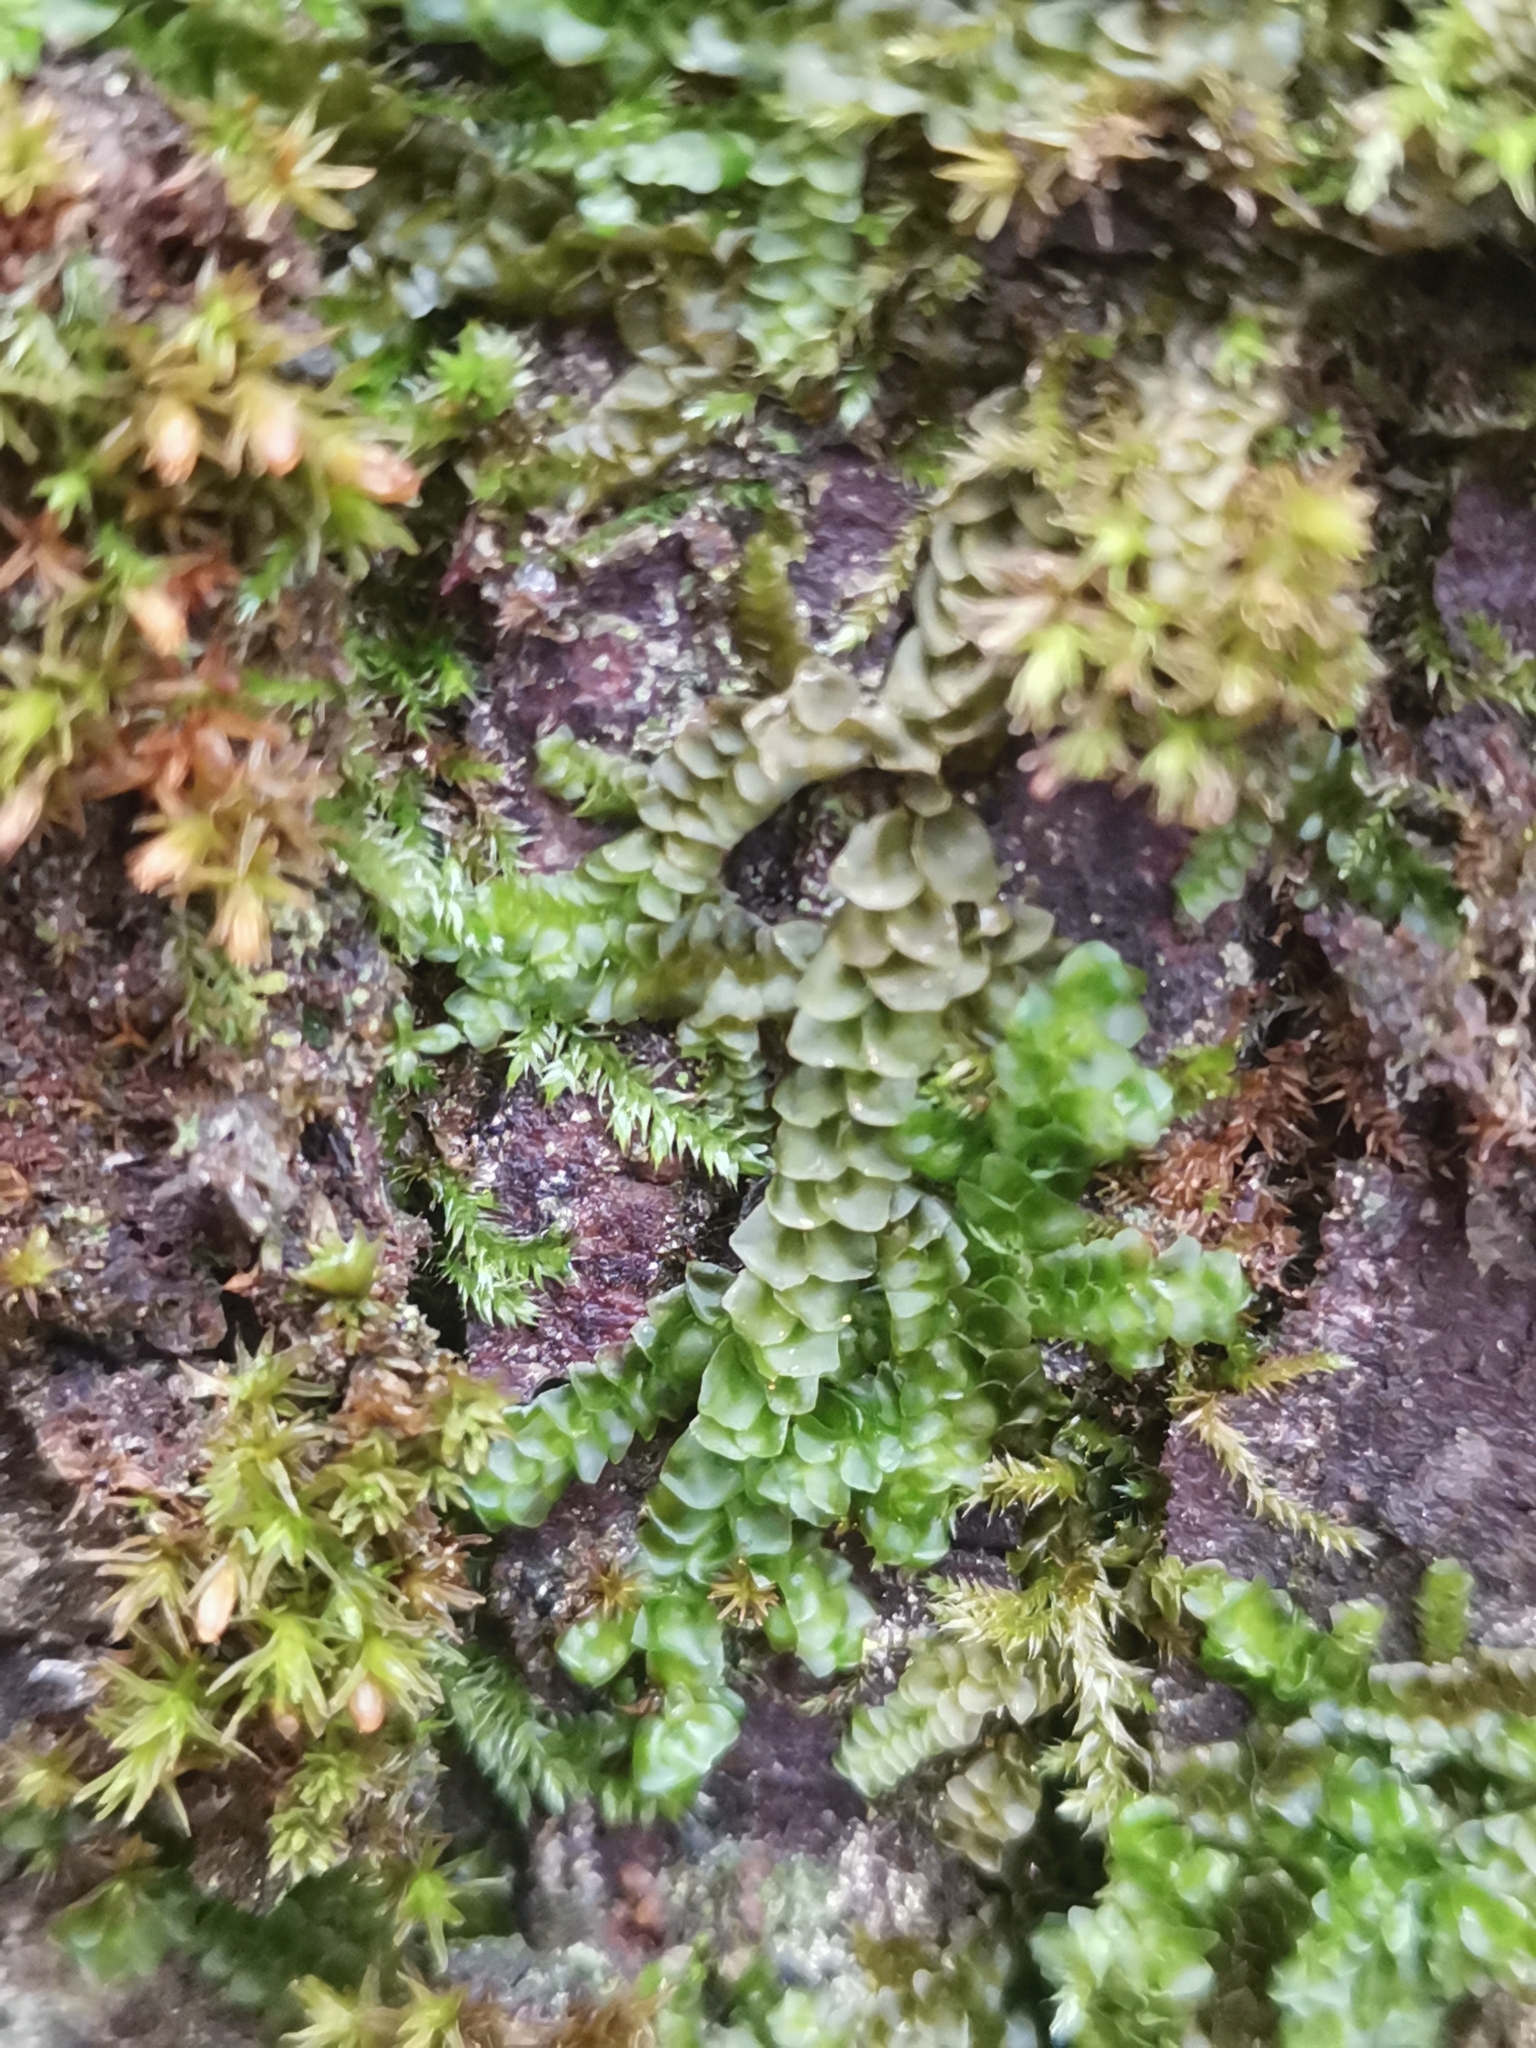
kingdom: Plantae
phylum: Marchantiophyta
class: Jungermanniopsida
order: Porellales
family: Porellaceae
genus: Porella
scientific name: Porella platyphylla
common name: Wall scalewort
